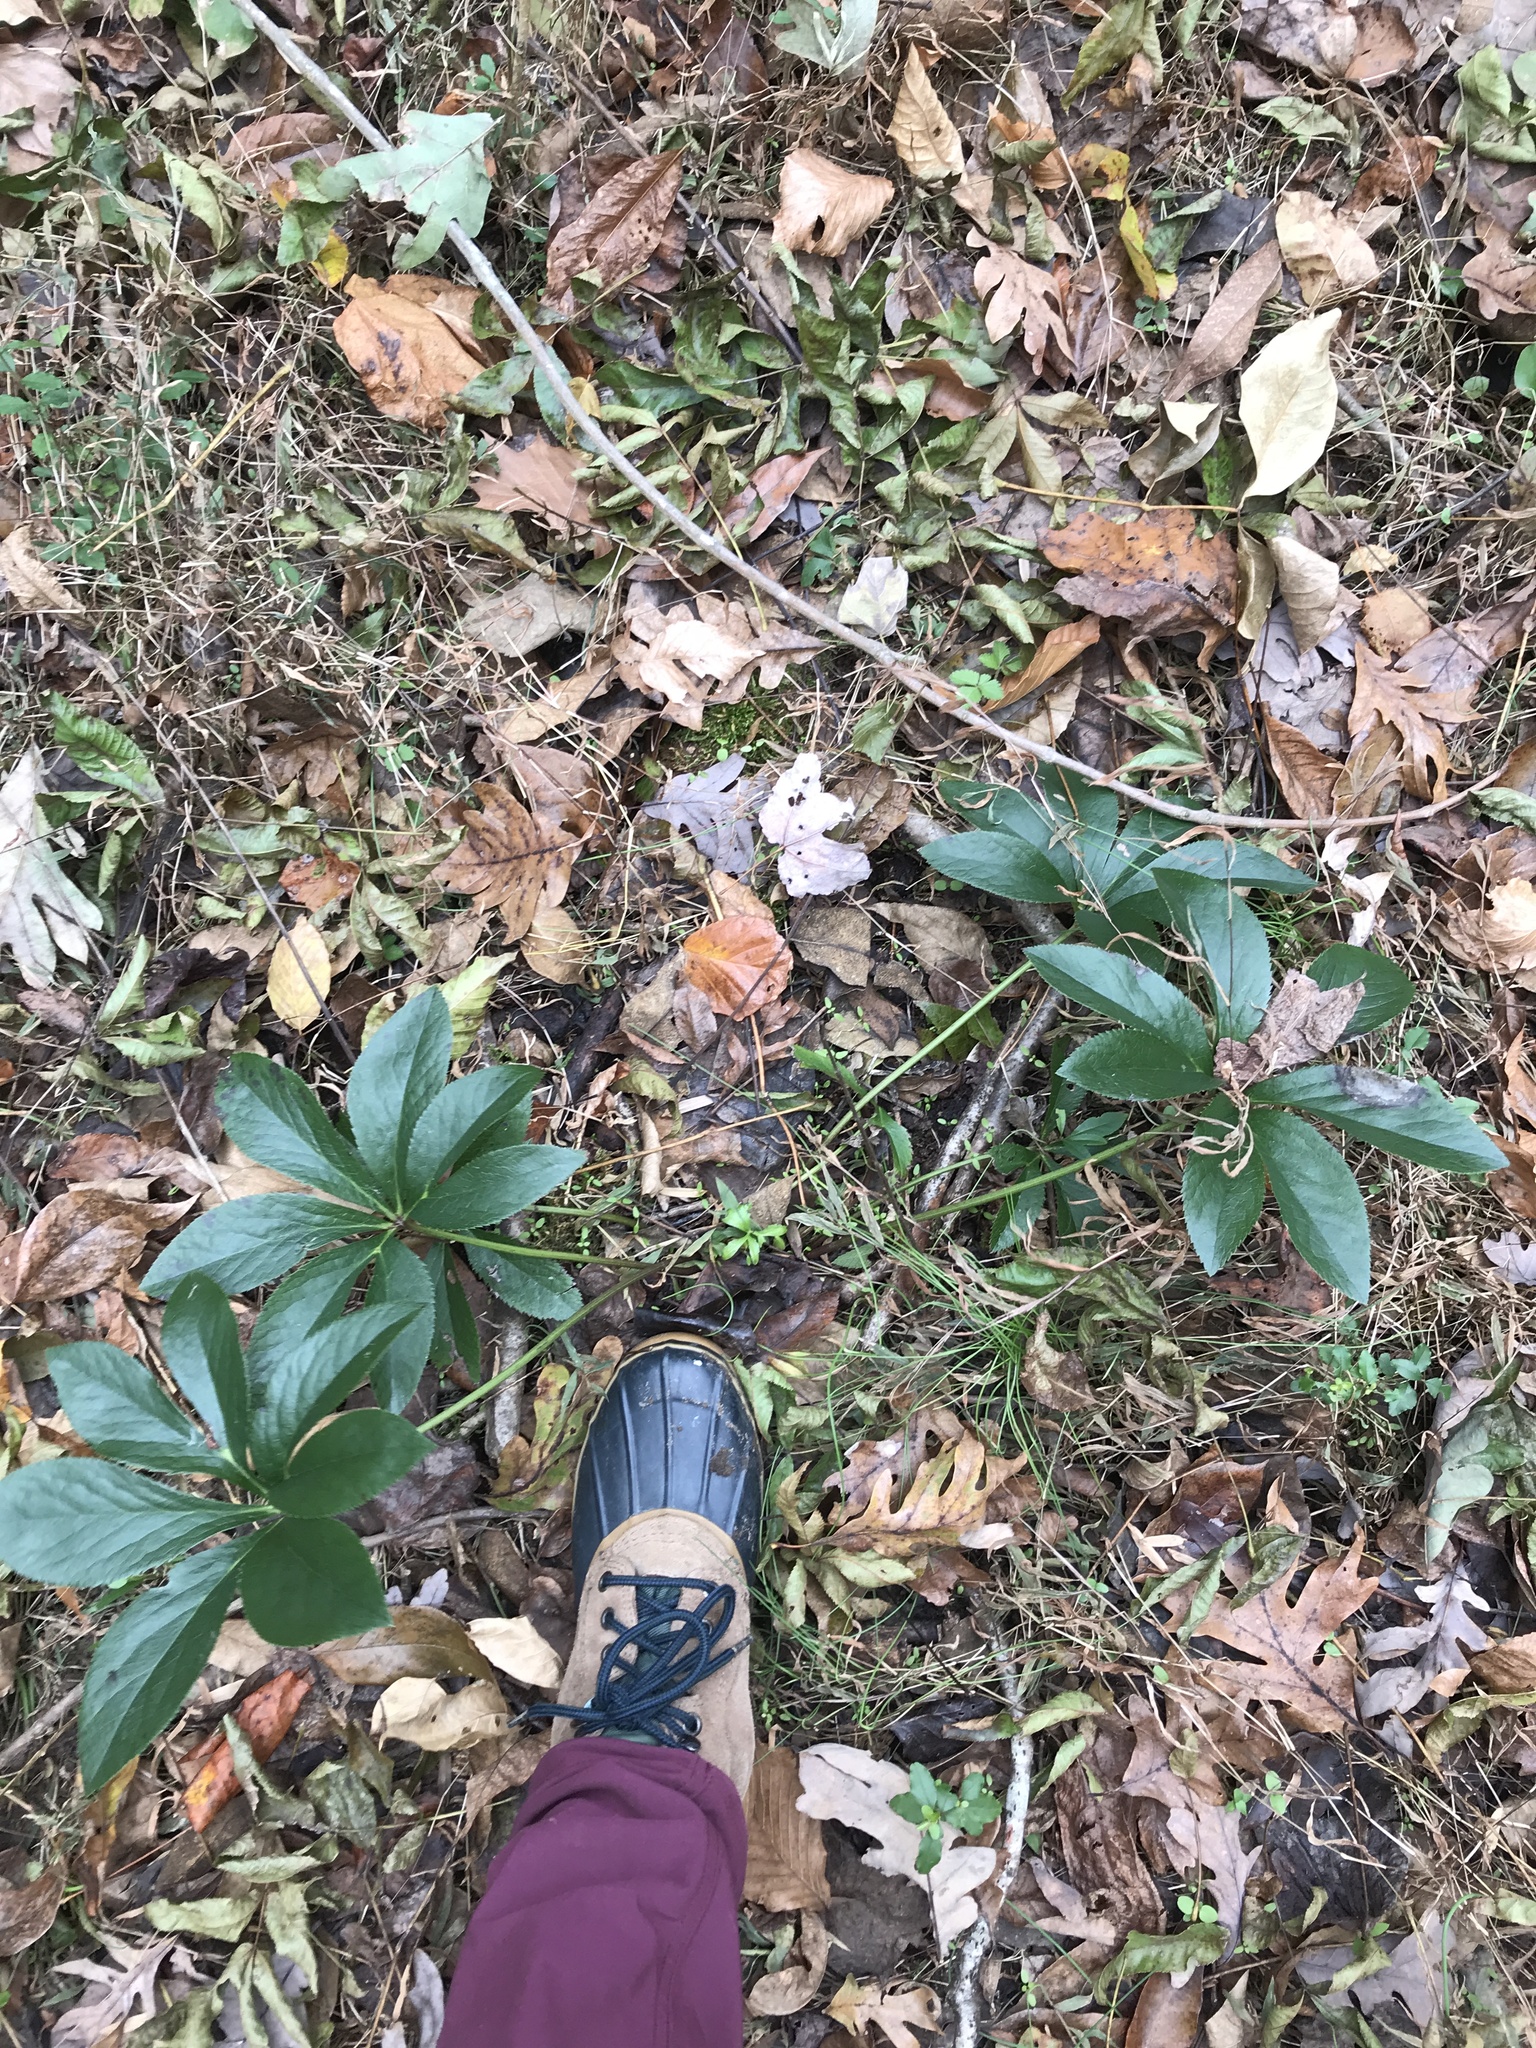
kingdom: Plantae
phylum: Tracheophyta
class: Magnoliopsida
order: Ranunculales
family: Ranunculaceae
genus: Helleborus
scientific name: Helleborus orientalis
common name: Lenten-rose
